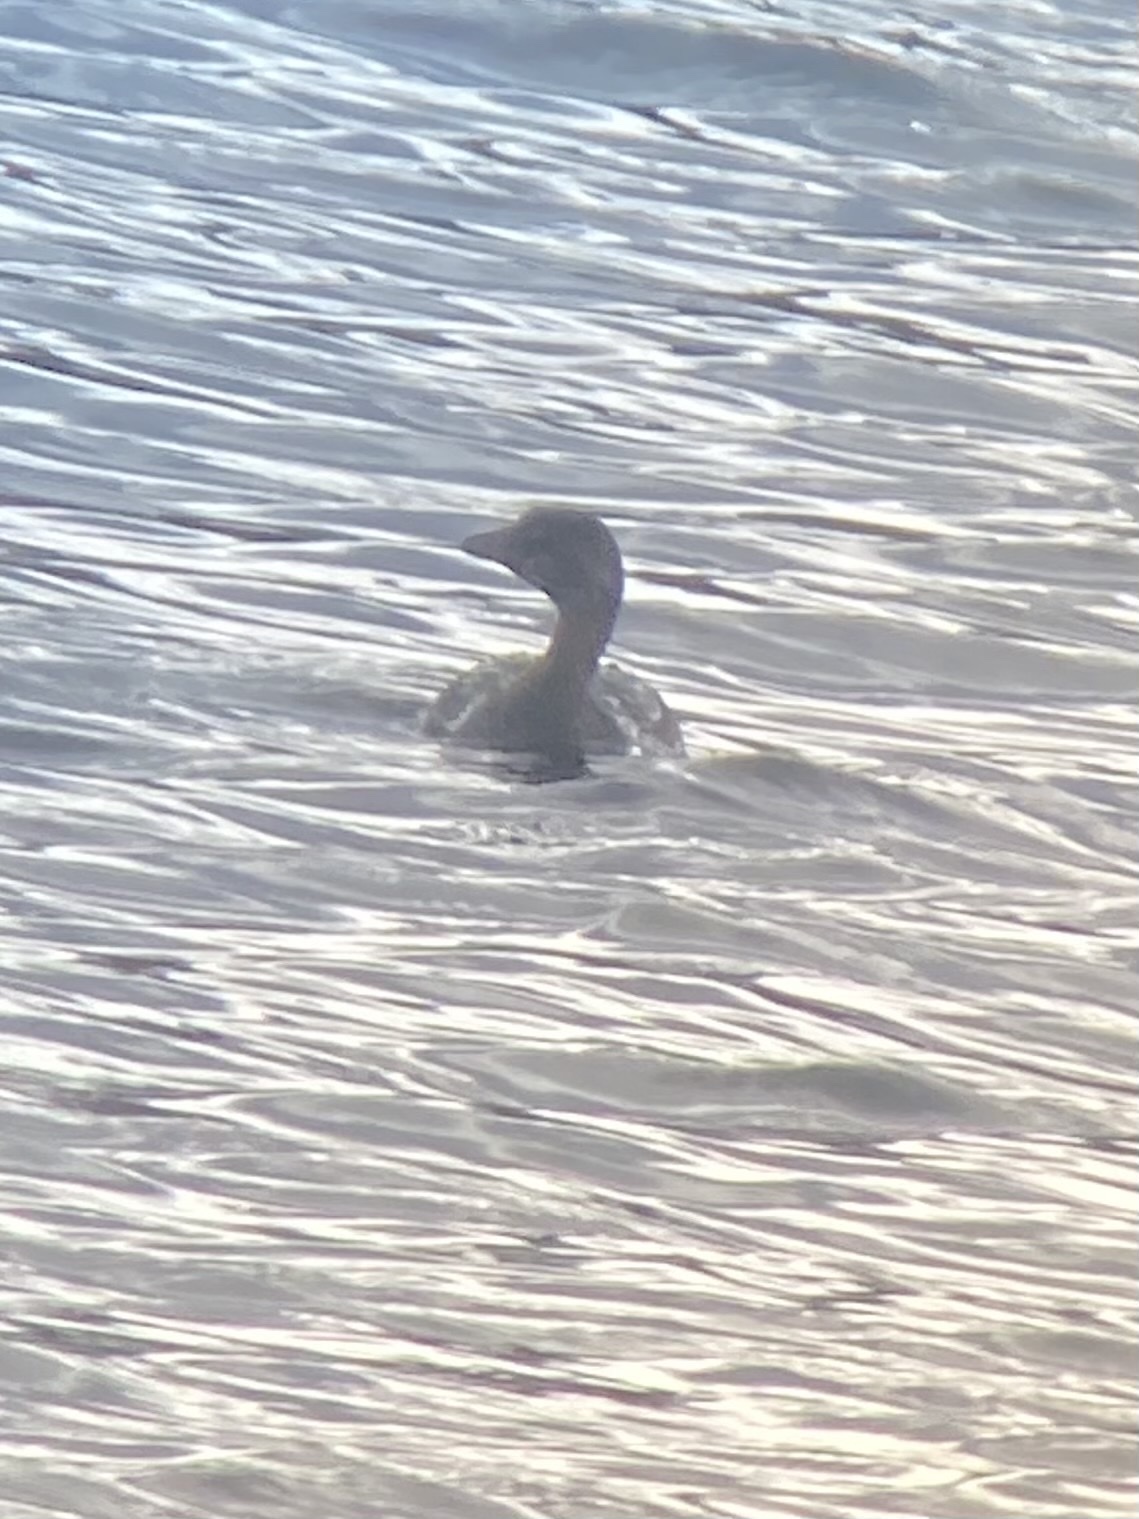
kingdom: Animalia
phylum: Chordata
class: Aves
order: Podicipediformes
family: Podicipedidae
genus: Podilymbus
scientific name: Podilymbus podiceps
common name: Pied-billed grebe
